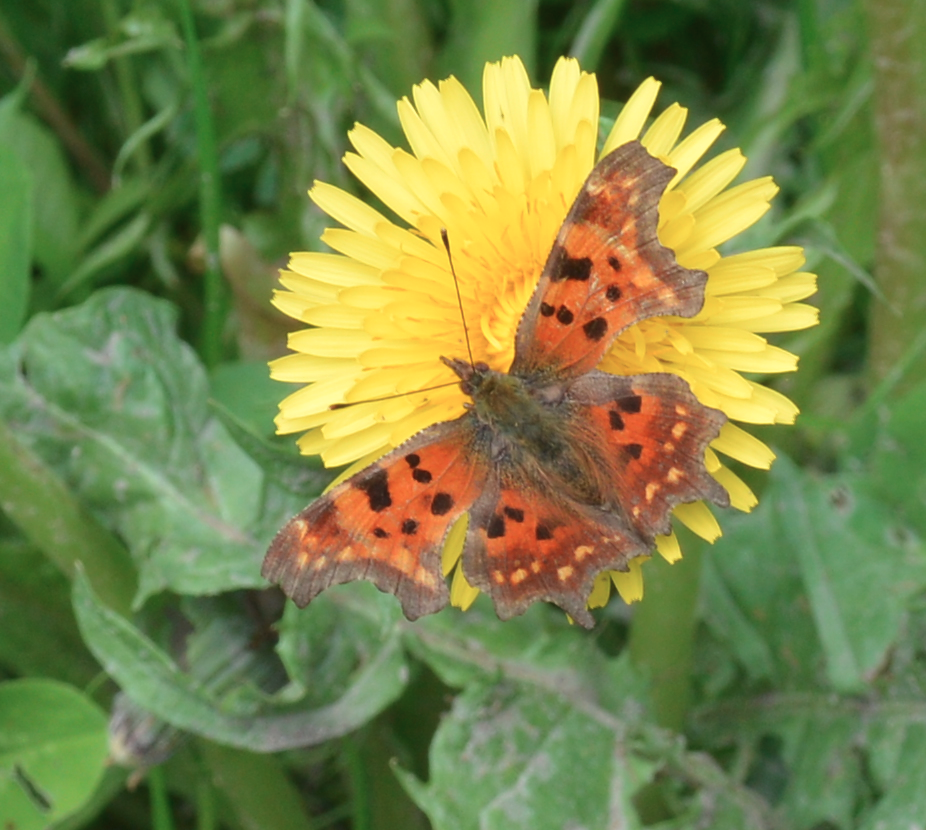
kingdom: Animalia
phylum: Arthropoda
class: Insecta
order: Lepidoptera
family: Nymphalidae
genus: Polygonia
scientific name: Polygonia c-album
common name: Comma
